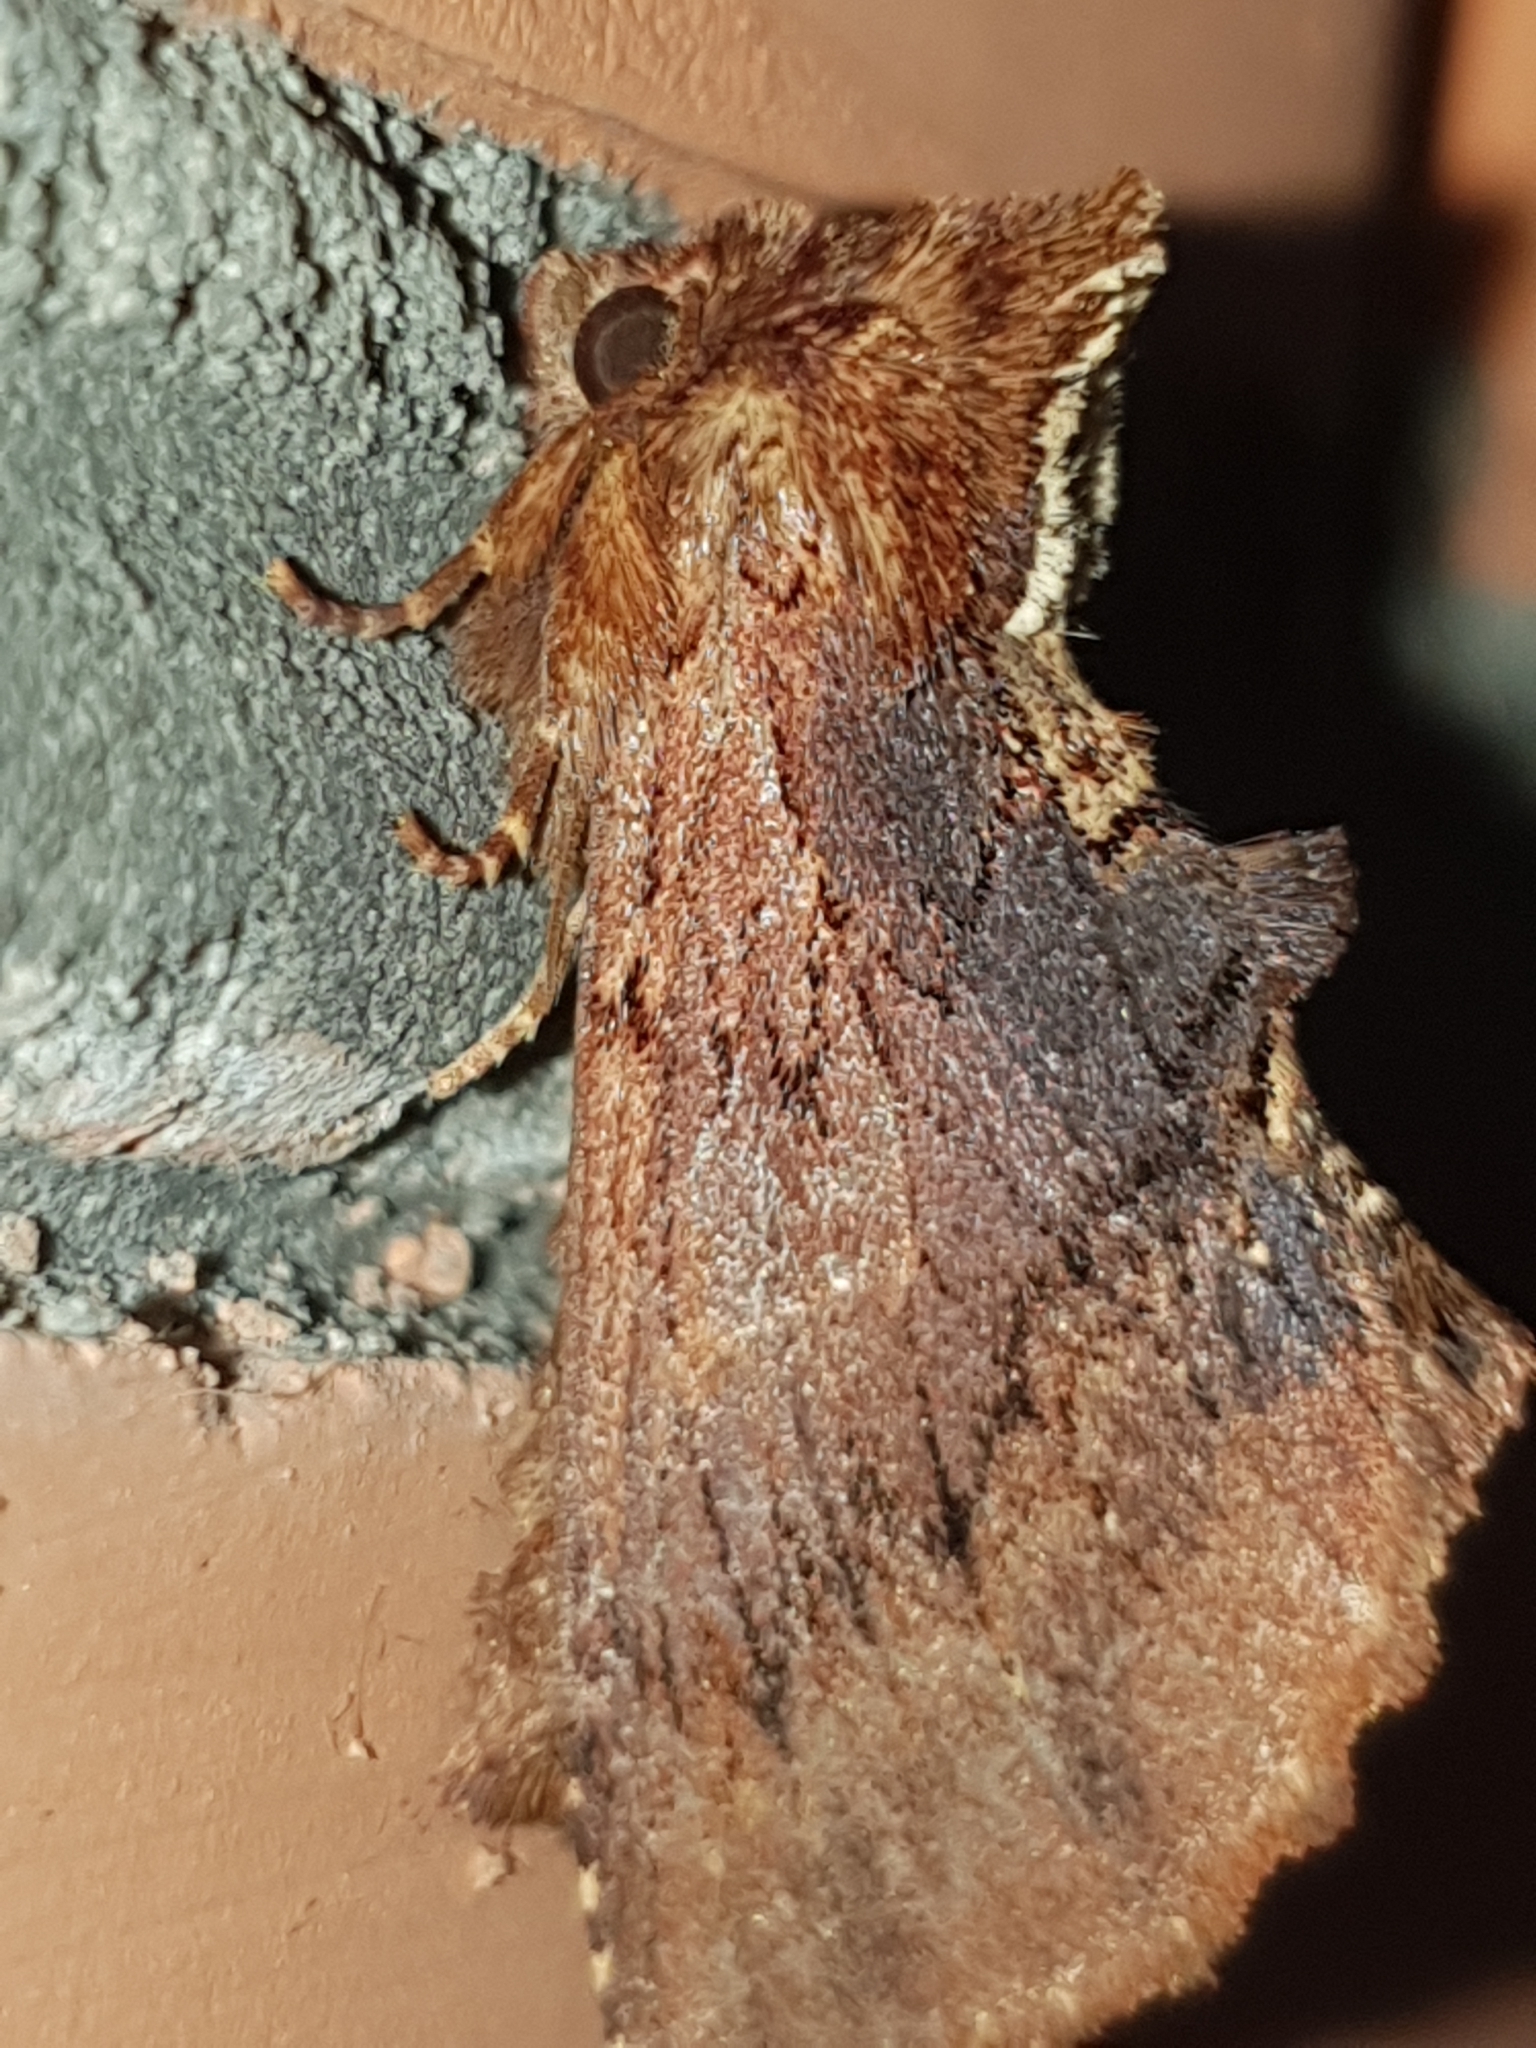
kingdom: Animalia
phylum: Arthropoda
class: Insecta
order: Lepidoptera
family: Notodontidae
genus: Ptilodon
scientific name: Ptilodon capucina
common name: Coxcomb prominent
